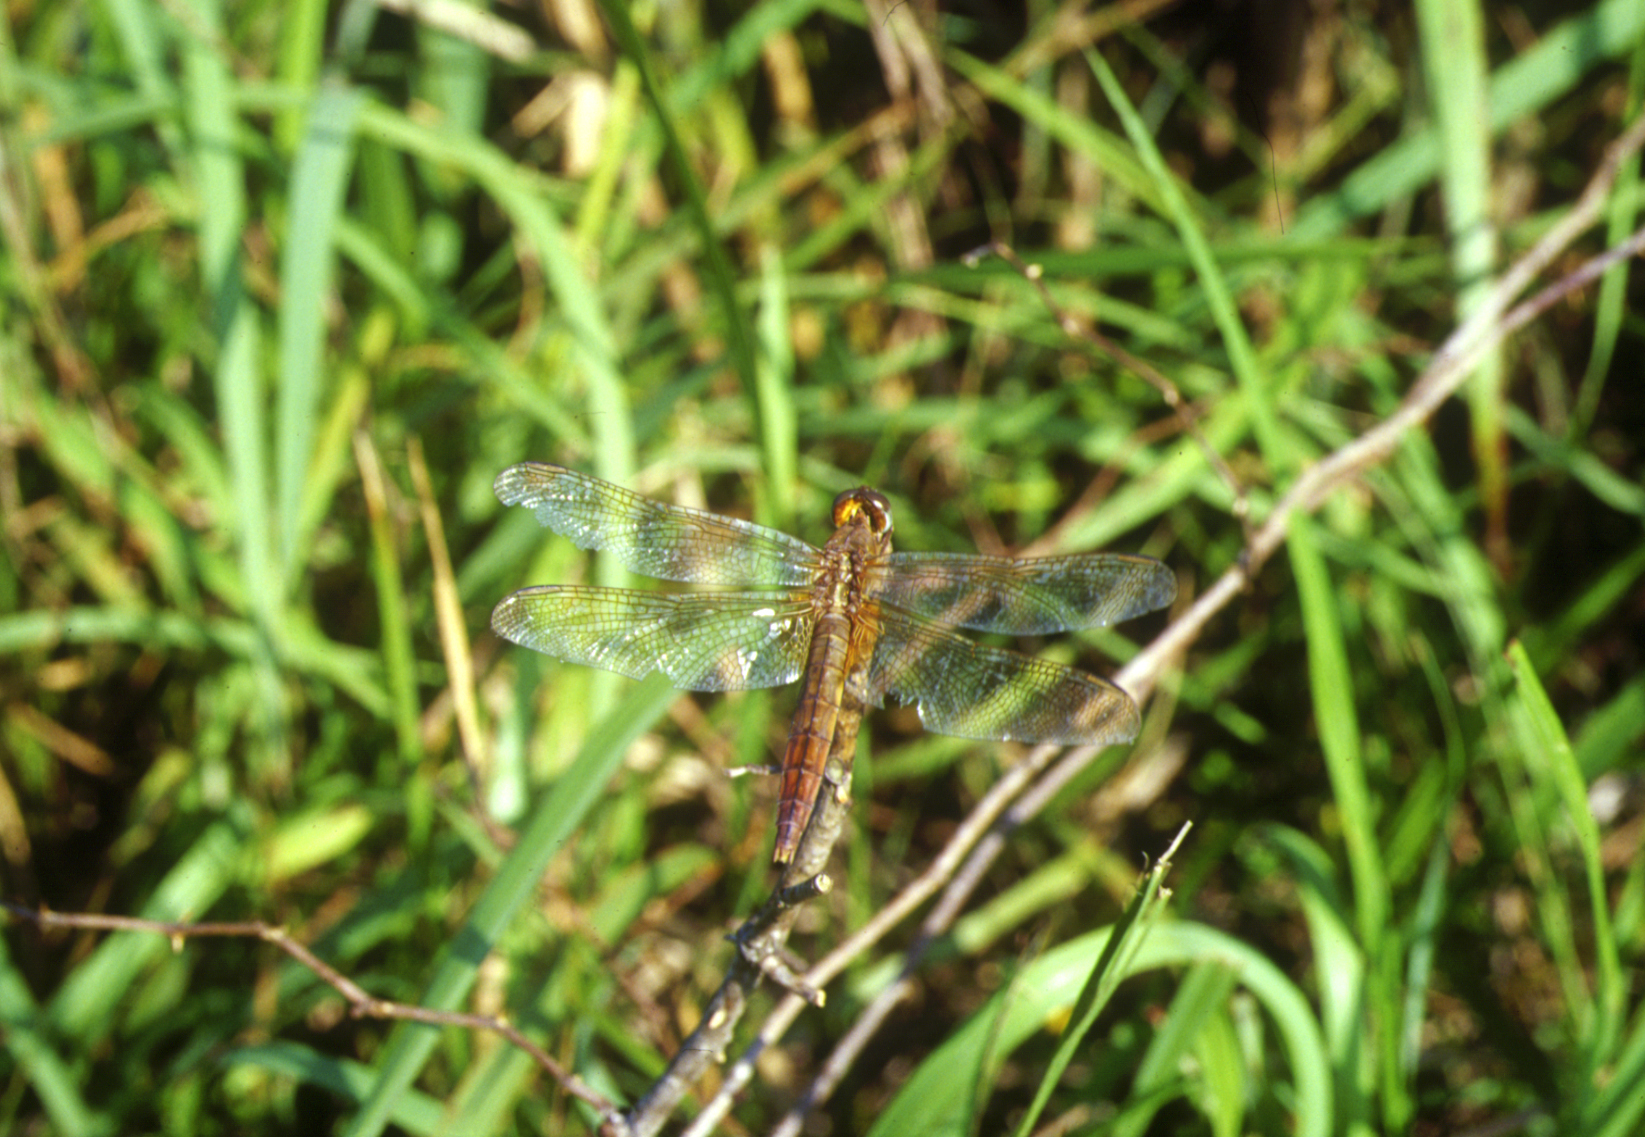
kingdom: Animalia
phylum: Arthropoda
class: Insecta
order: Odonata
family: Libellulidae
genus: Crocothemis
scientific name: Crocothemis servilia
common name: Scarlet skimmer
